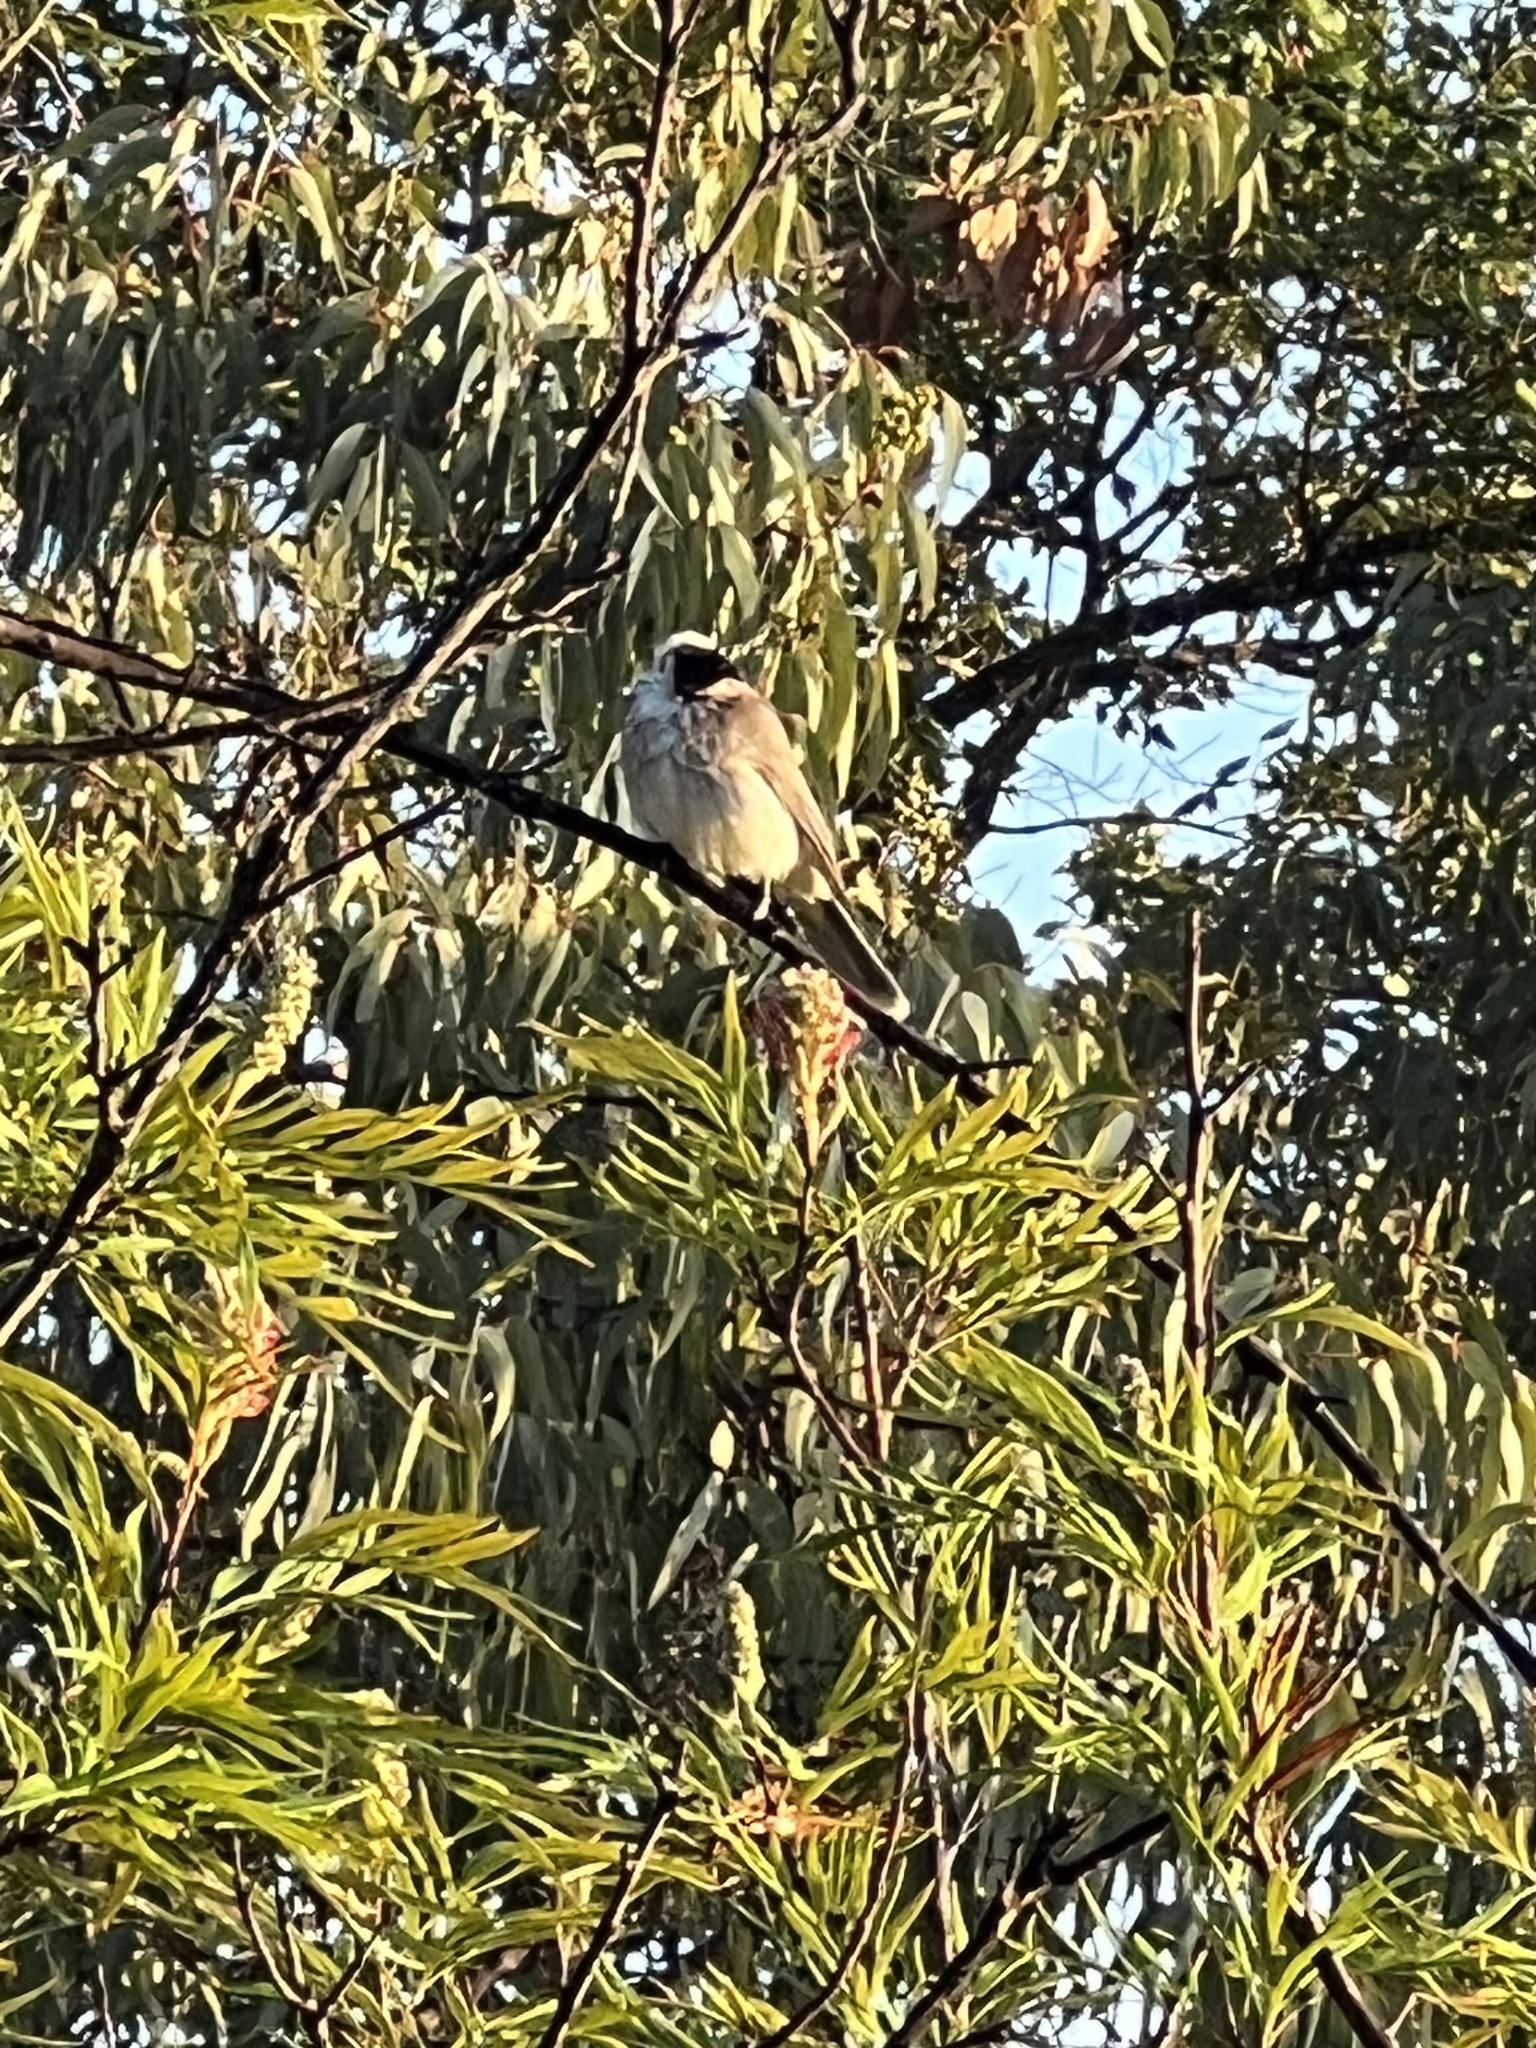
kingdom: Animalia
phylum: Chordata
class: Aves
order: Passeriformes
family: Meliphagidae
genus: Philemon
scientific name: Philemon corniculatus
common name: Noisy friarbird
